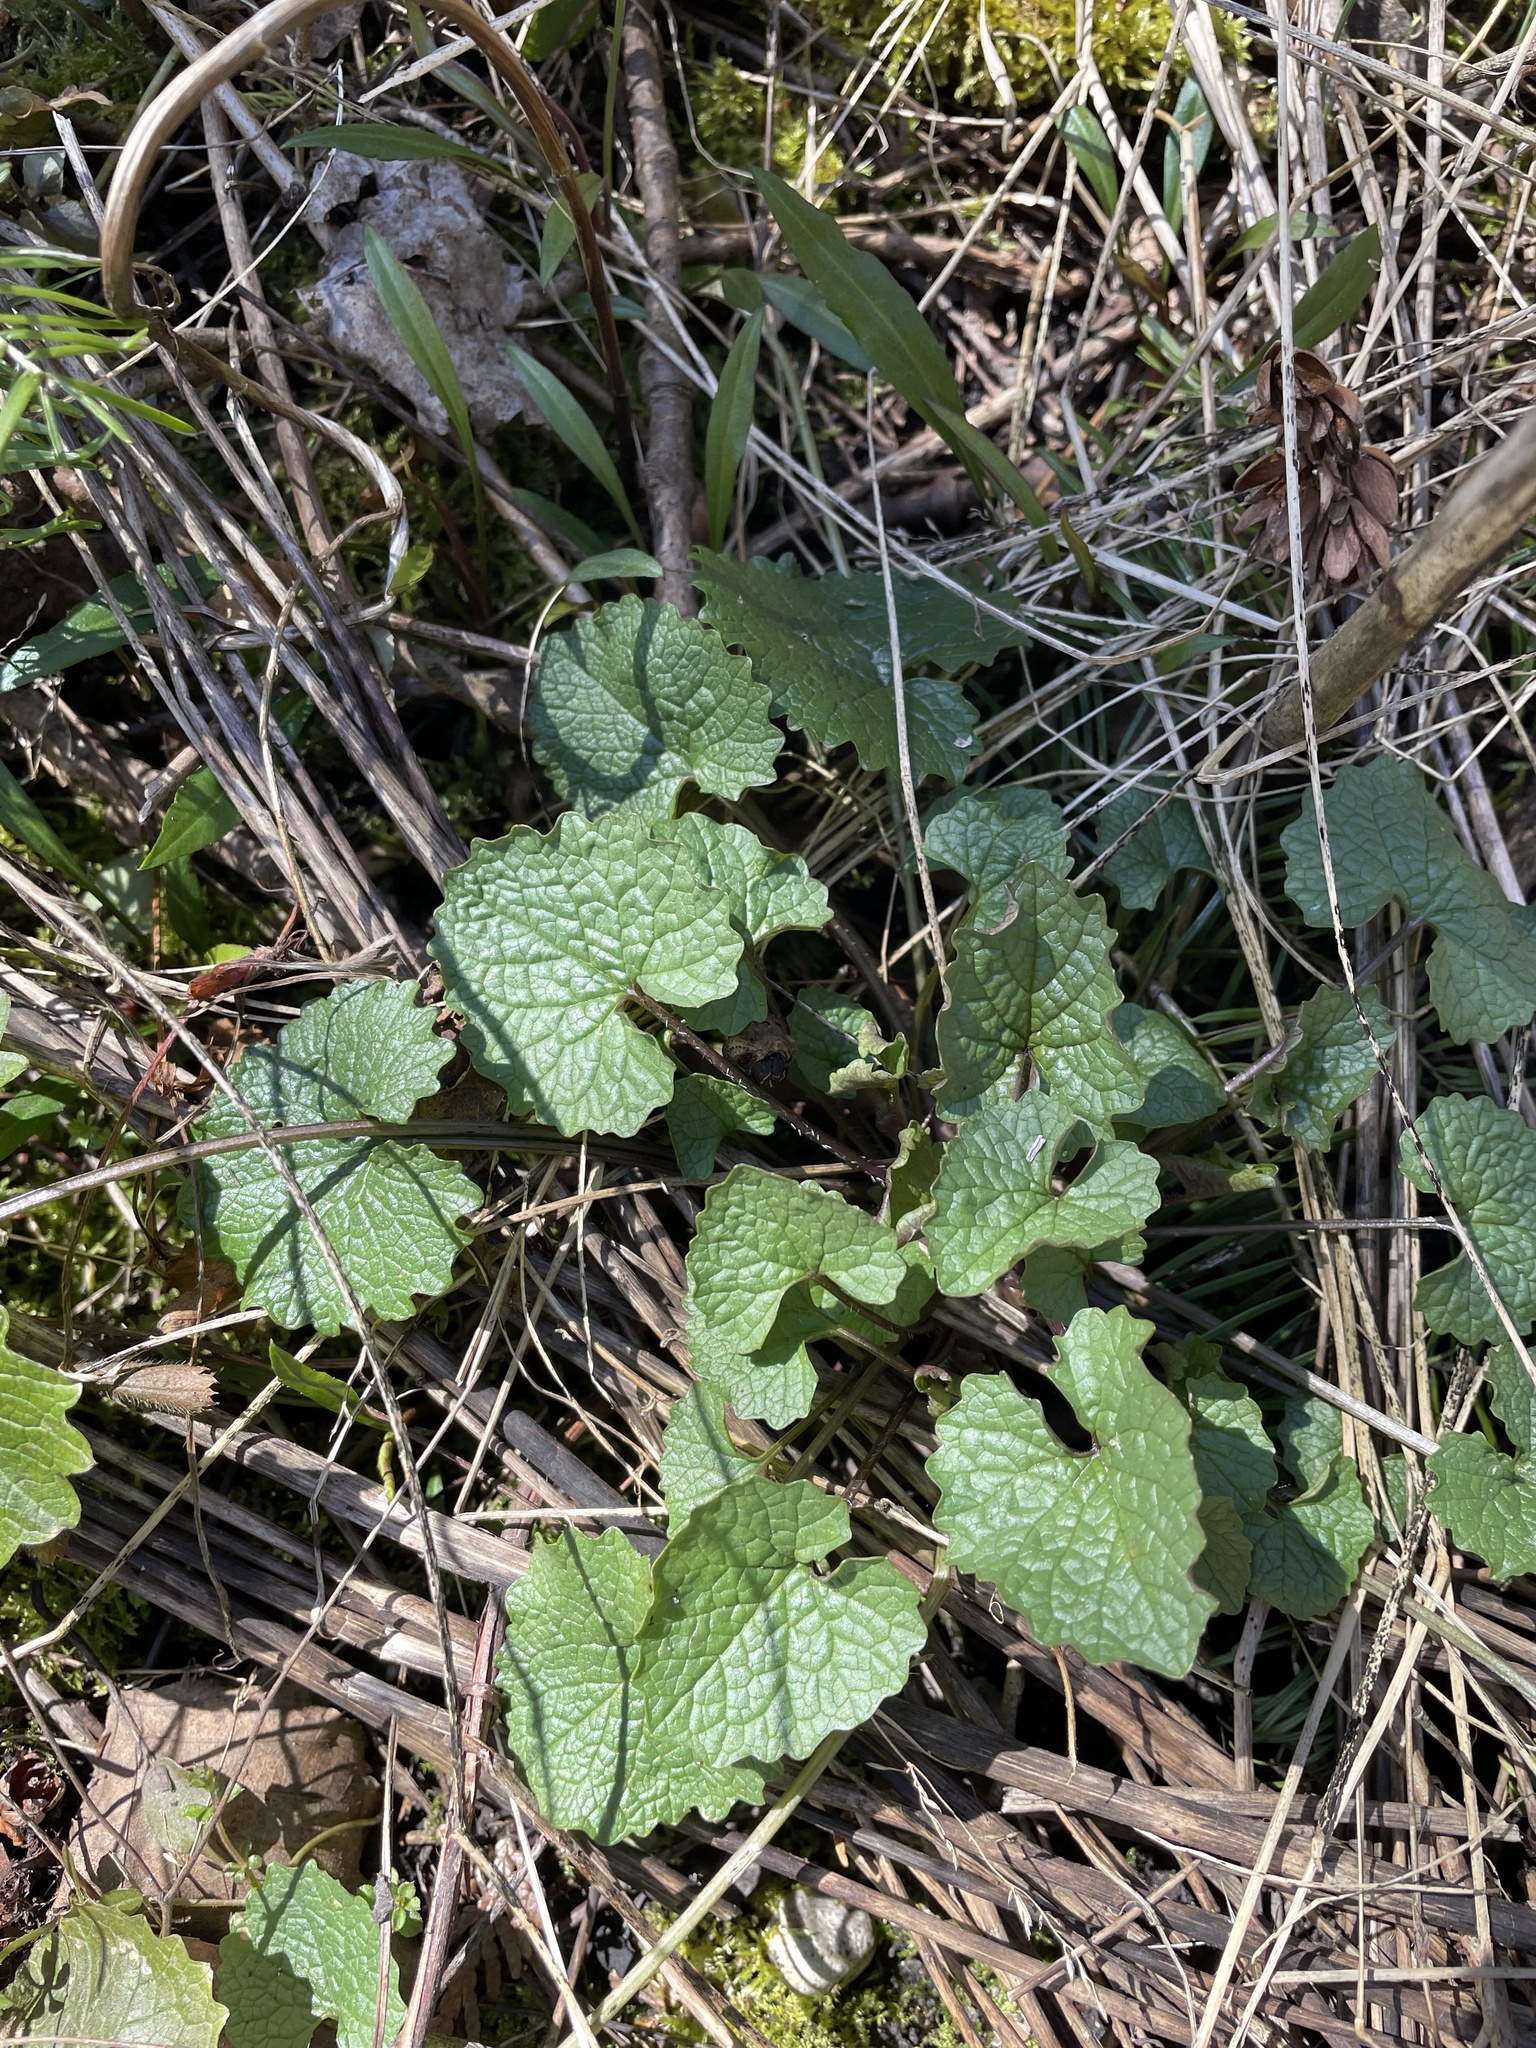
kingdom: Plantae
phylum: Tracheophyta
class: Magnoliopsida
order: Brassicales
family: Brassicaceae
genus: Alliaria
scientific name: Alliaria petiolata
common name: Garlic mustard
